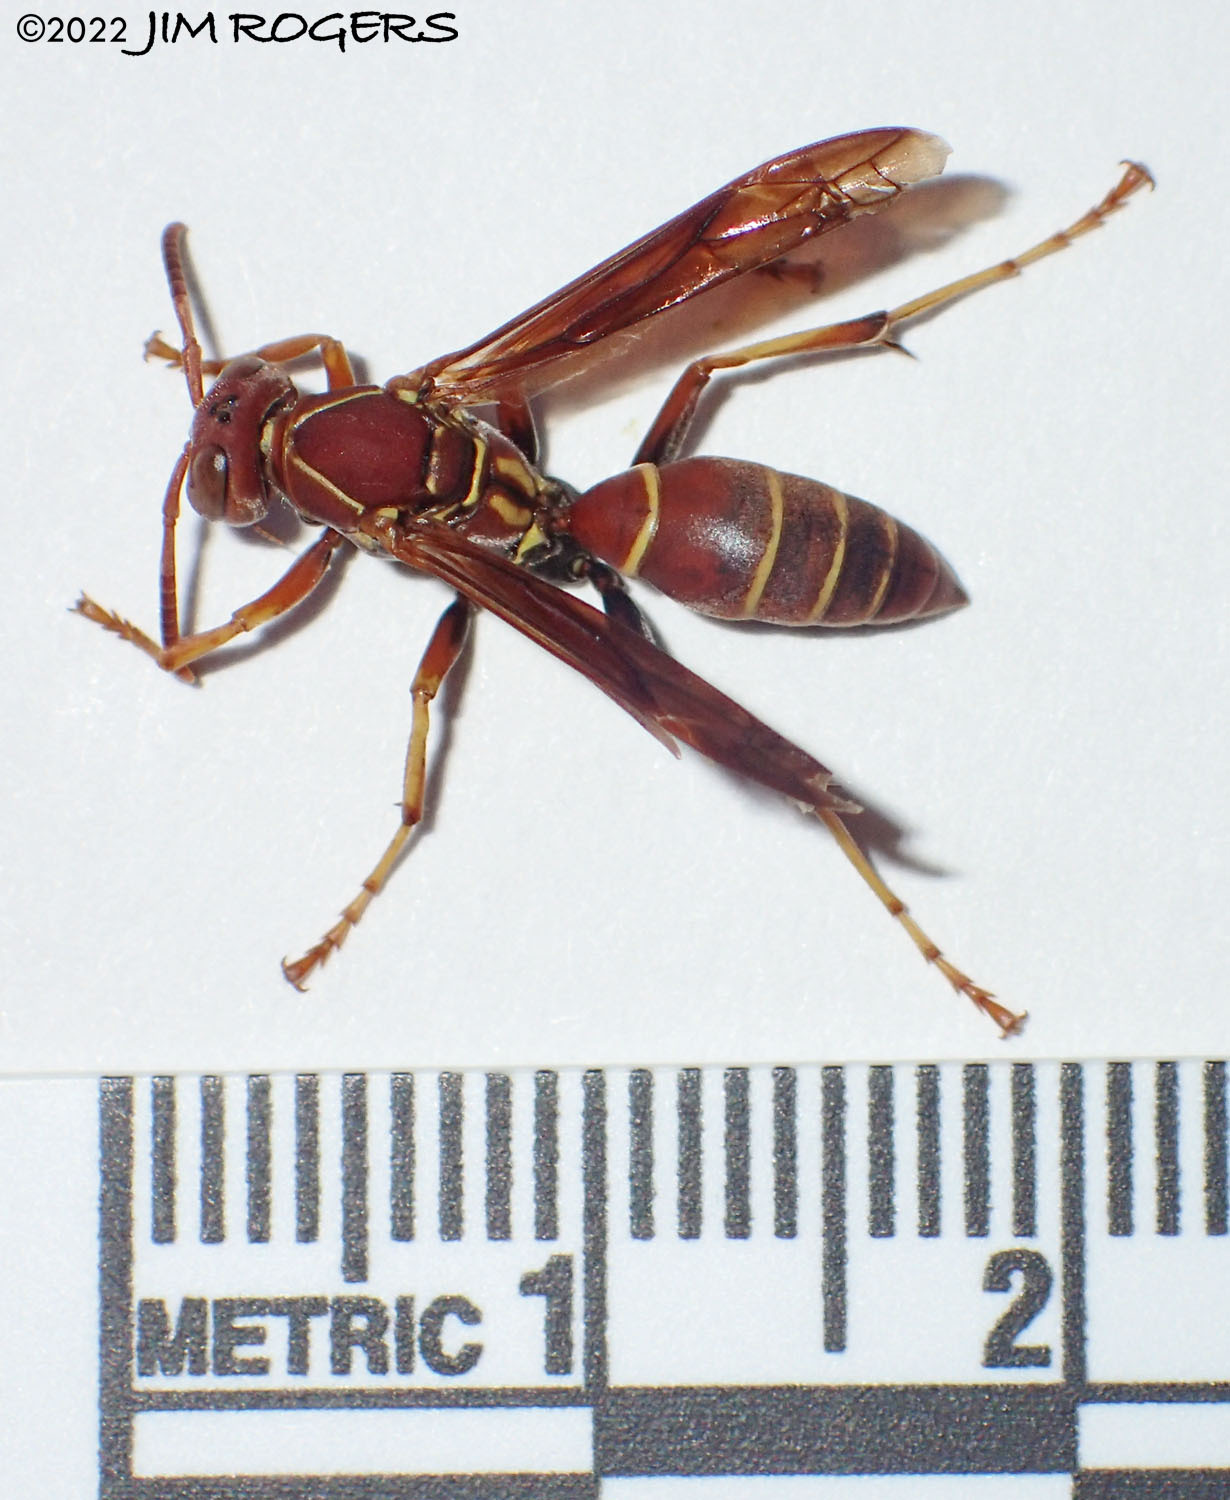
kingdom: Animalia
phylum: Arthropoda
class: Insecta
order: Hymenoptera
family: Eumenidae
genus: Polistes
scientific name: Polistes dorsalis
